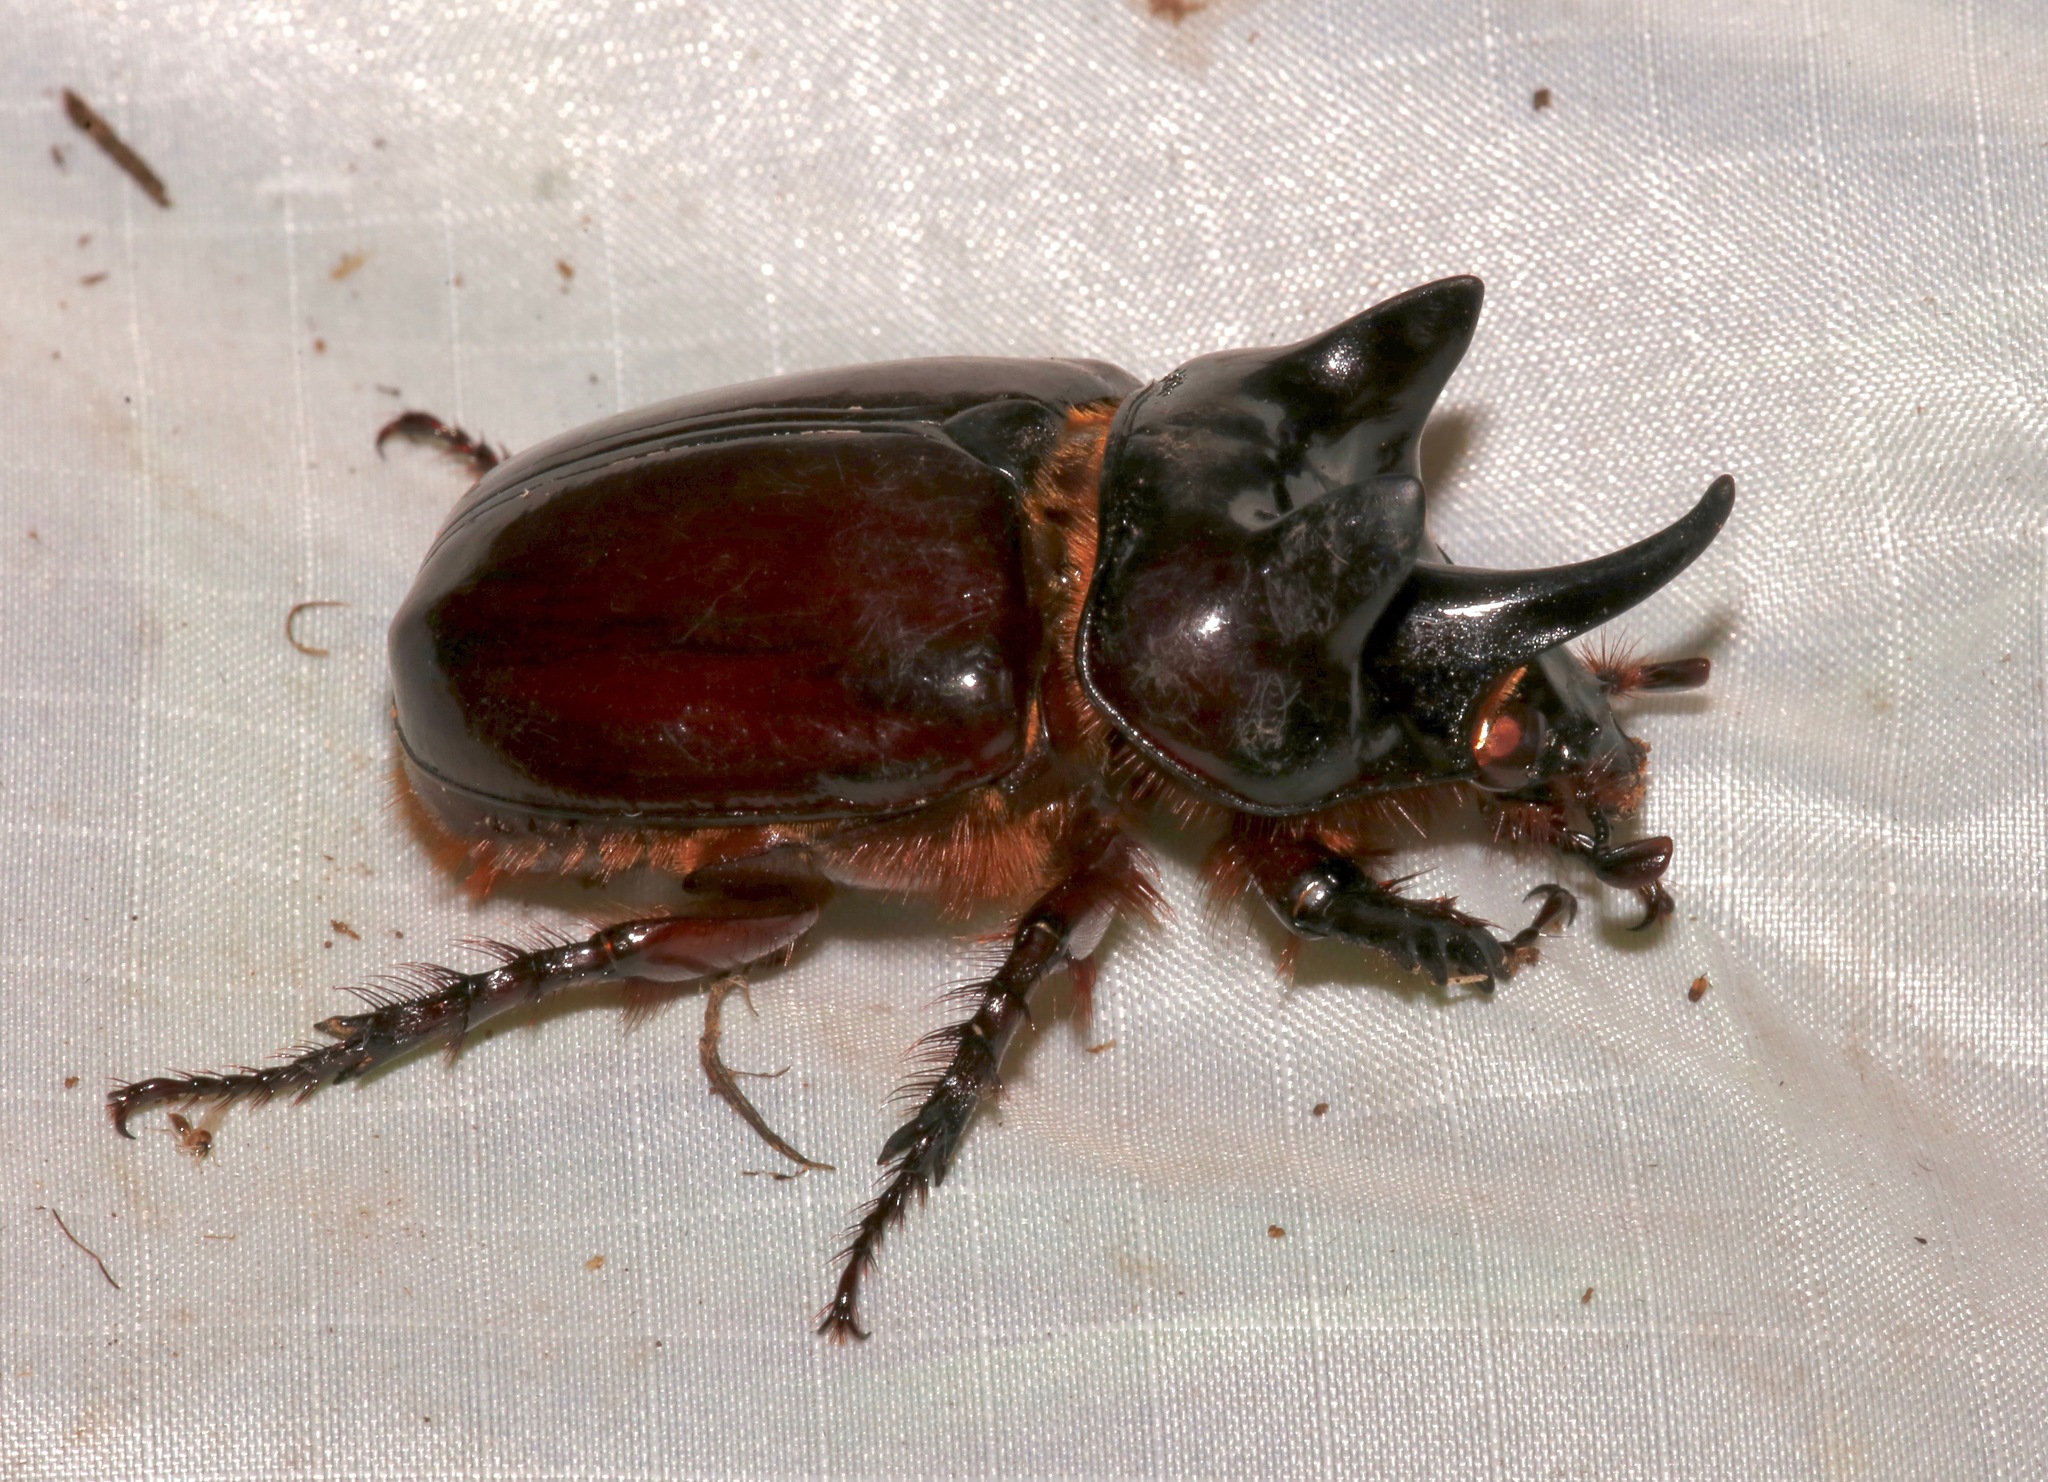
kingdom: Animalia
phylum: Arthropoda
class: Insecta
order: Coleoptera
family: Scarabaeidae
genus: Strategus
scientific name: Strategus aloeus
